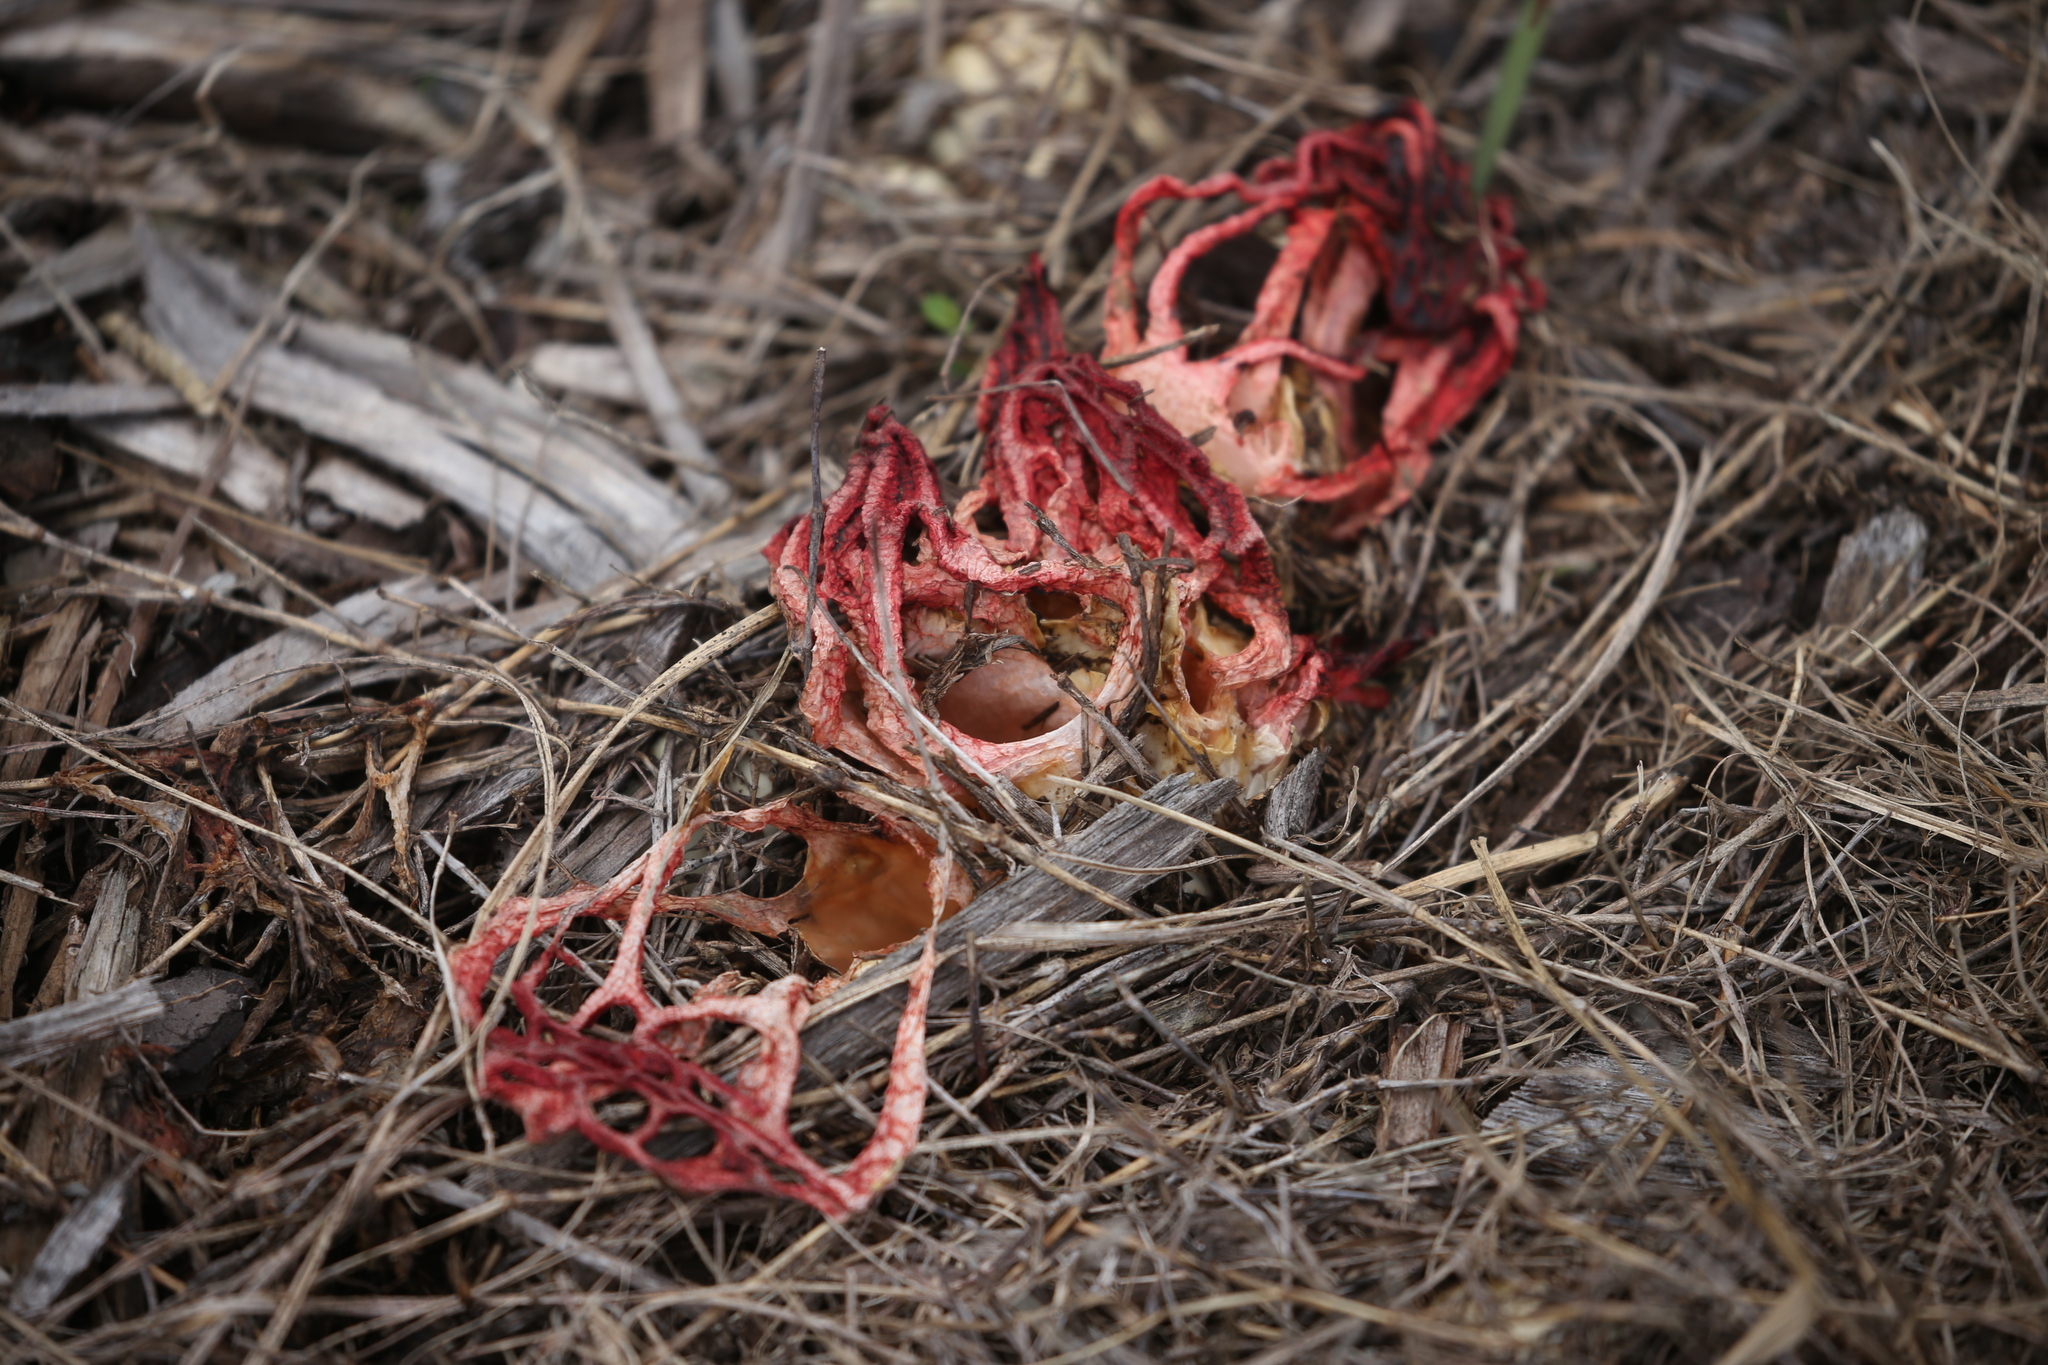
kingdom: Fungi
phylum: Basidiomycota
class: Agaricomycetes
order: Phallales
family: Phallaceae
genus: Colus
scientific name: Colus pusillus
